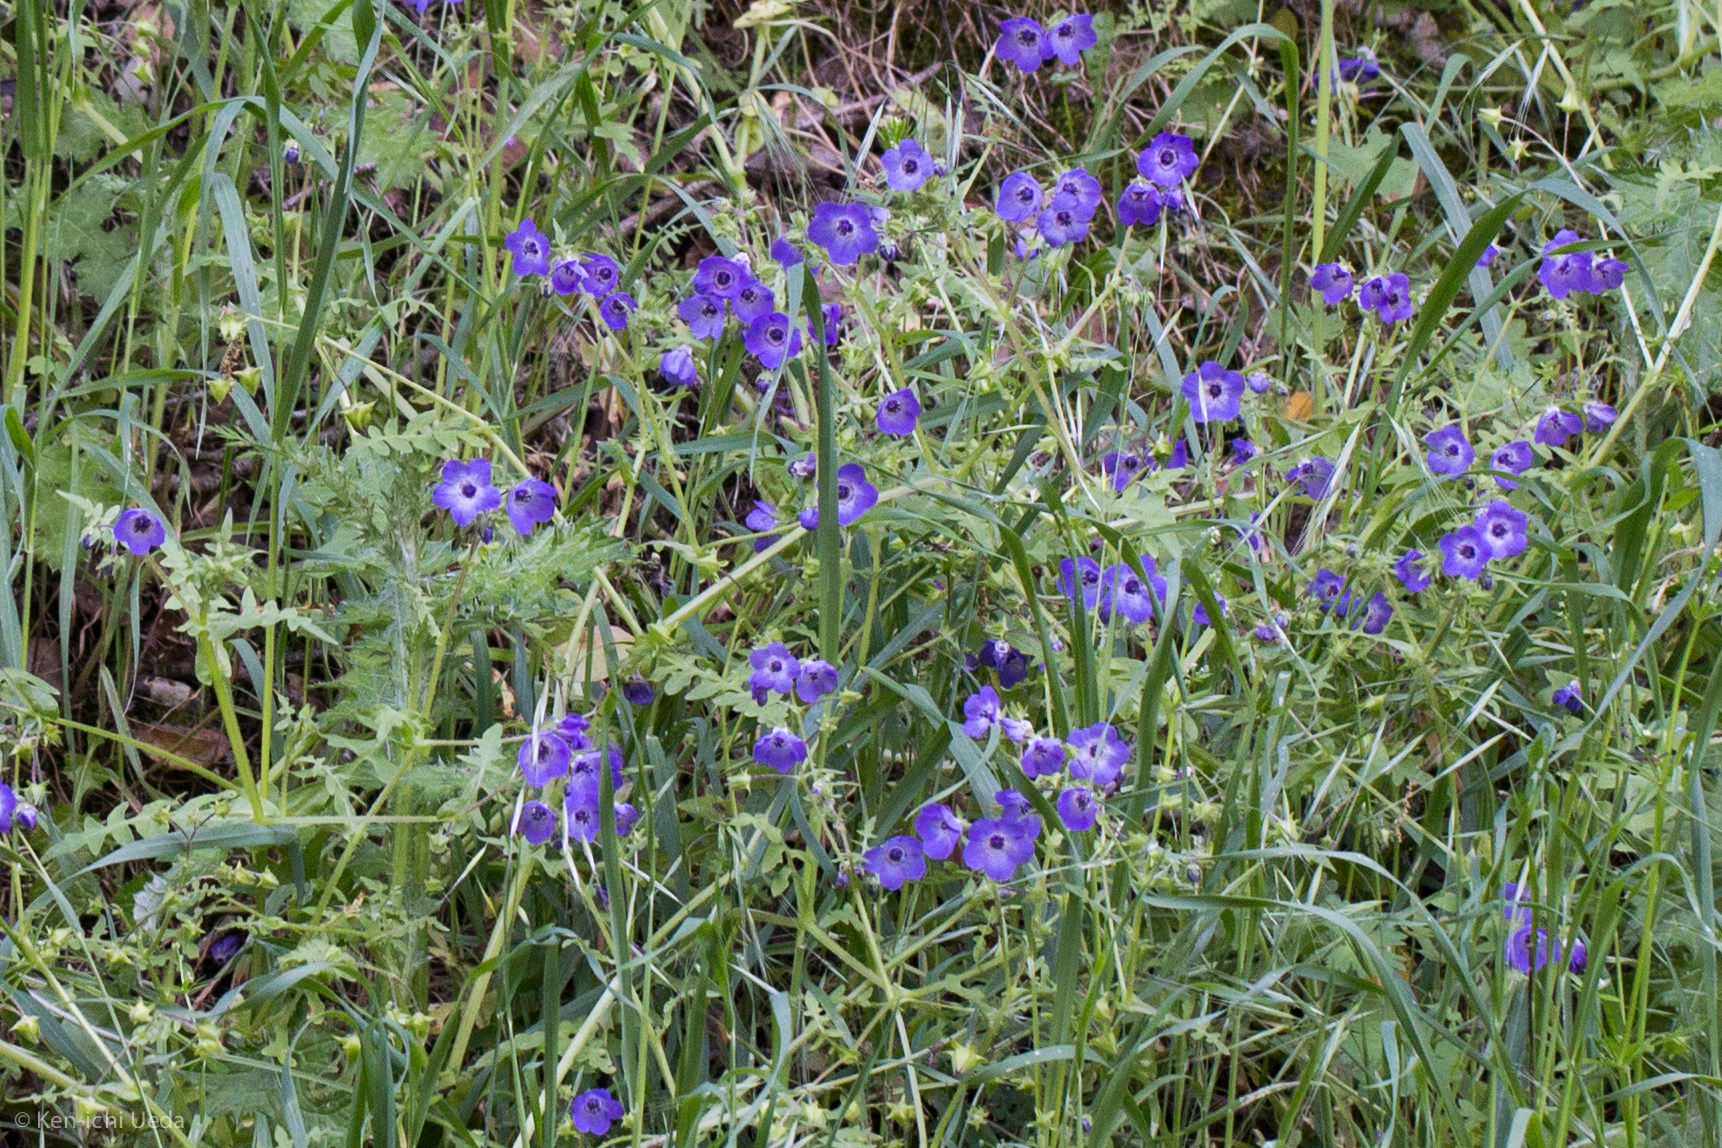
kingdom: Plantae
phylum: Tracheophyta
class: Magnoliopsida
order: Boraginales
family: Hydrophyllaceae
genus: Pholistoma
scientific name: Pholistoma auritum
